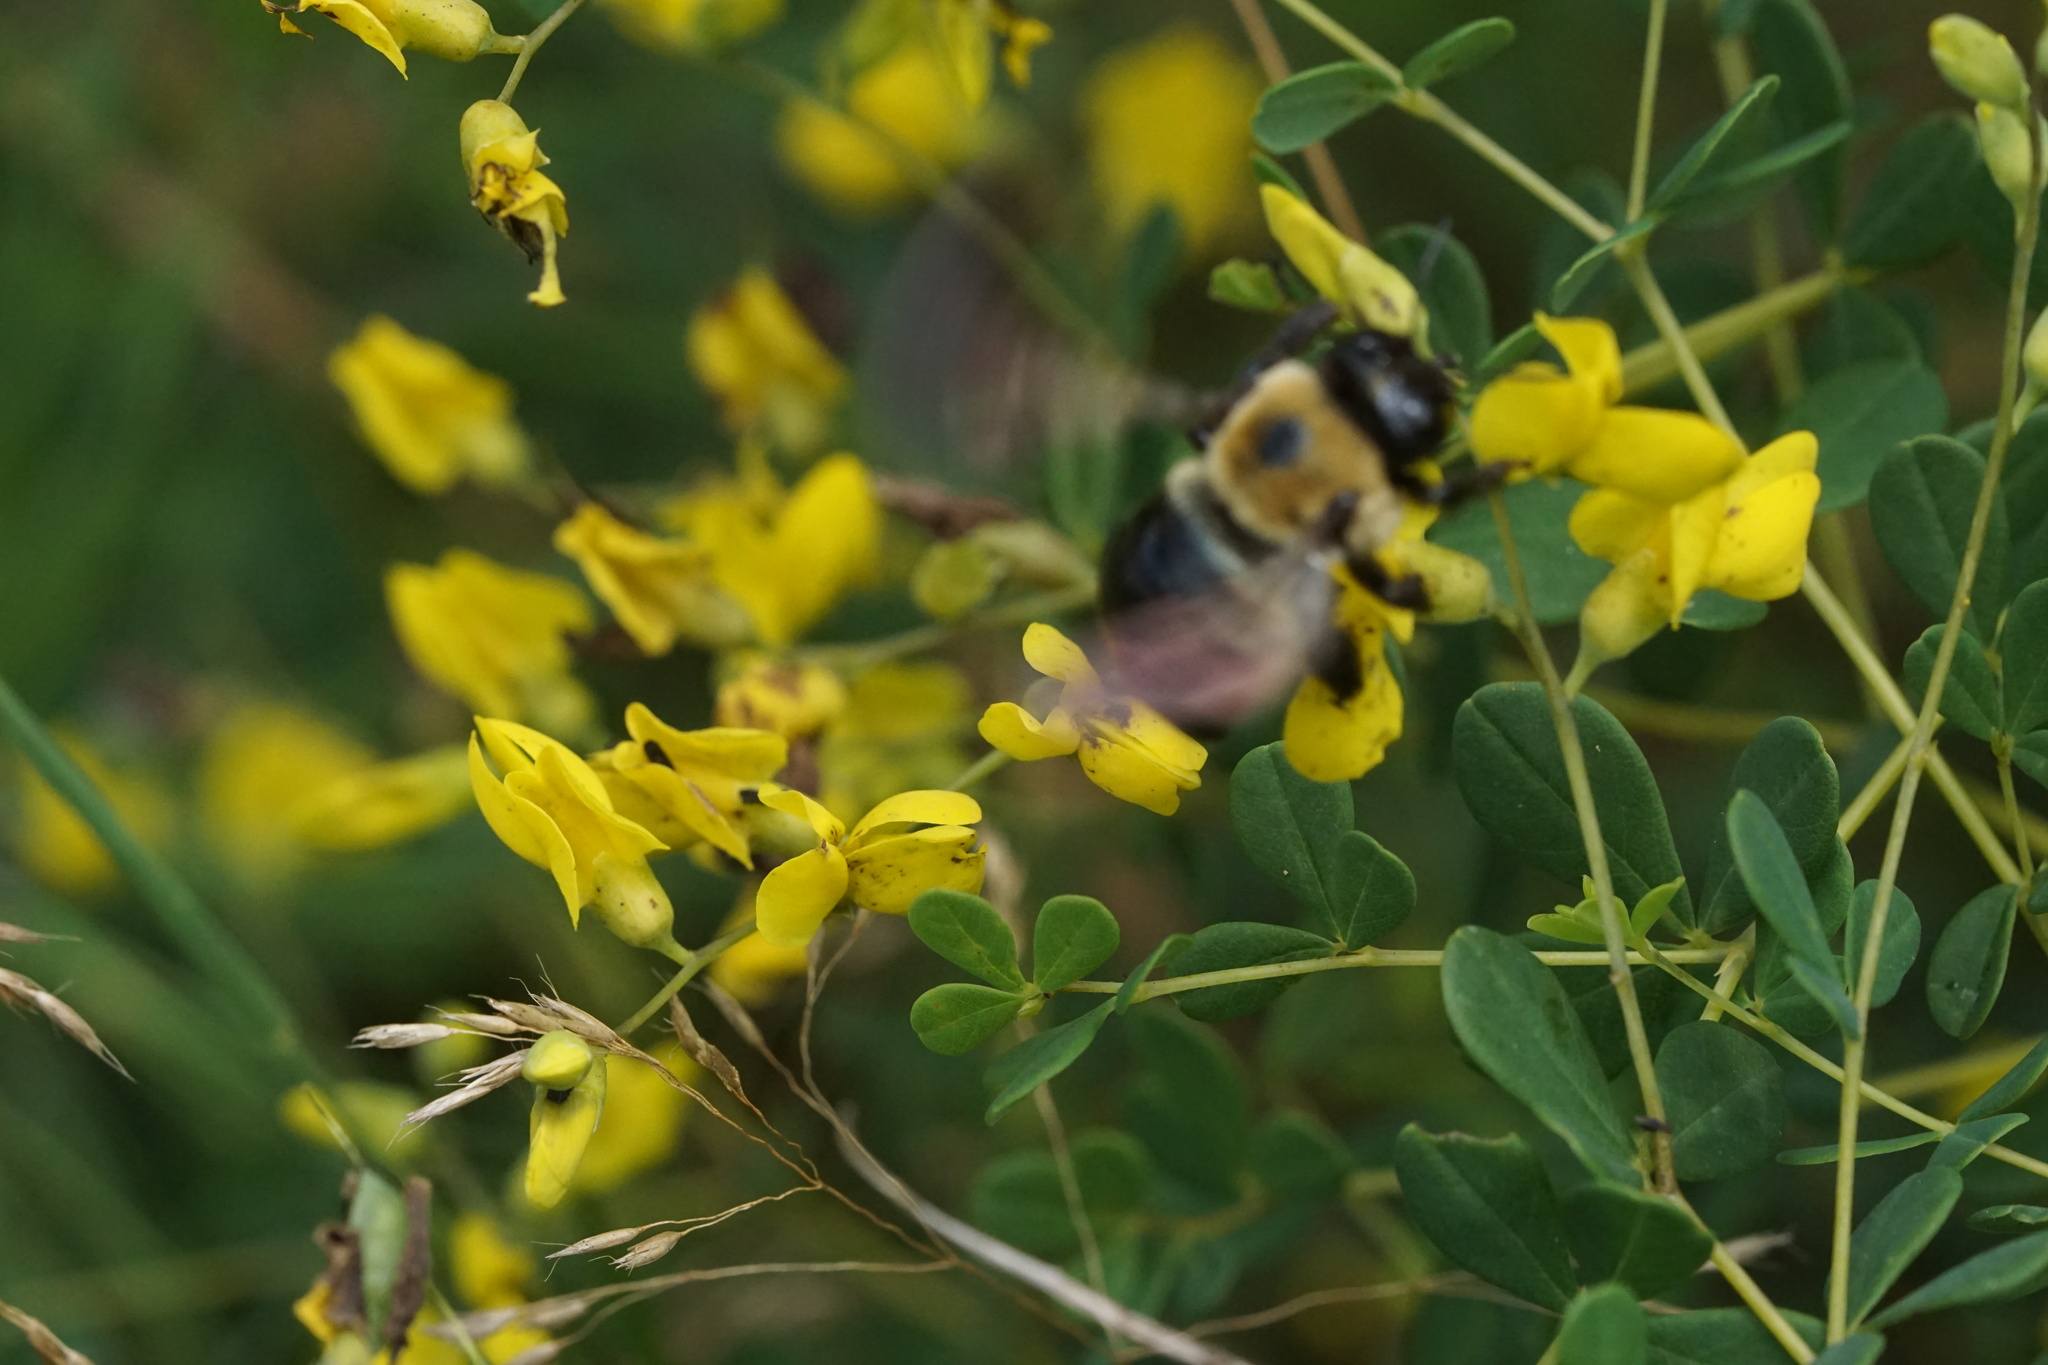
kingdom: Animalia
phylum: Arthropoda
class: Insecta
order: Hymenoptera
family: Apidae
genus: Xylocopa
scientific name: Xylocopa virginica
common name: Carpenter bee
